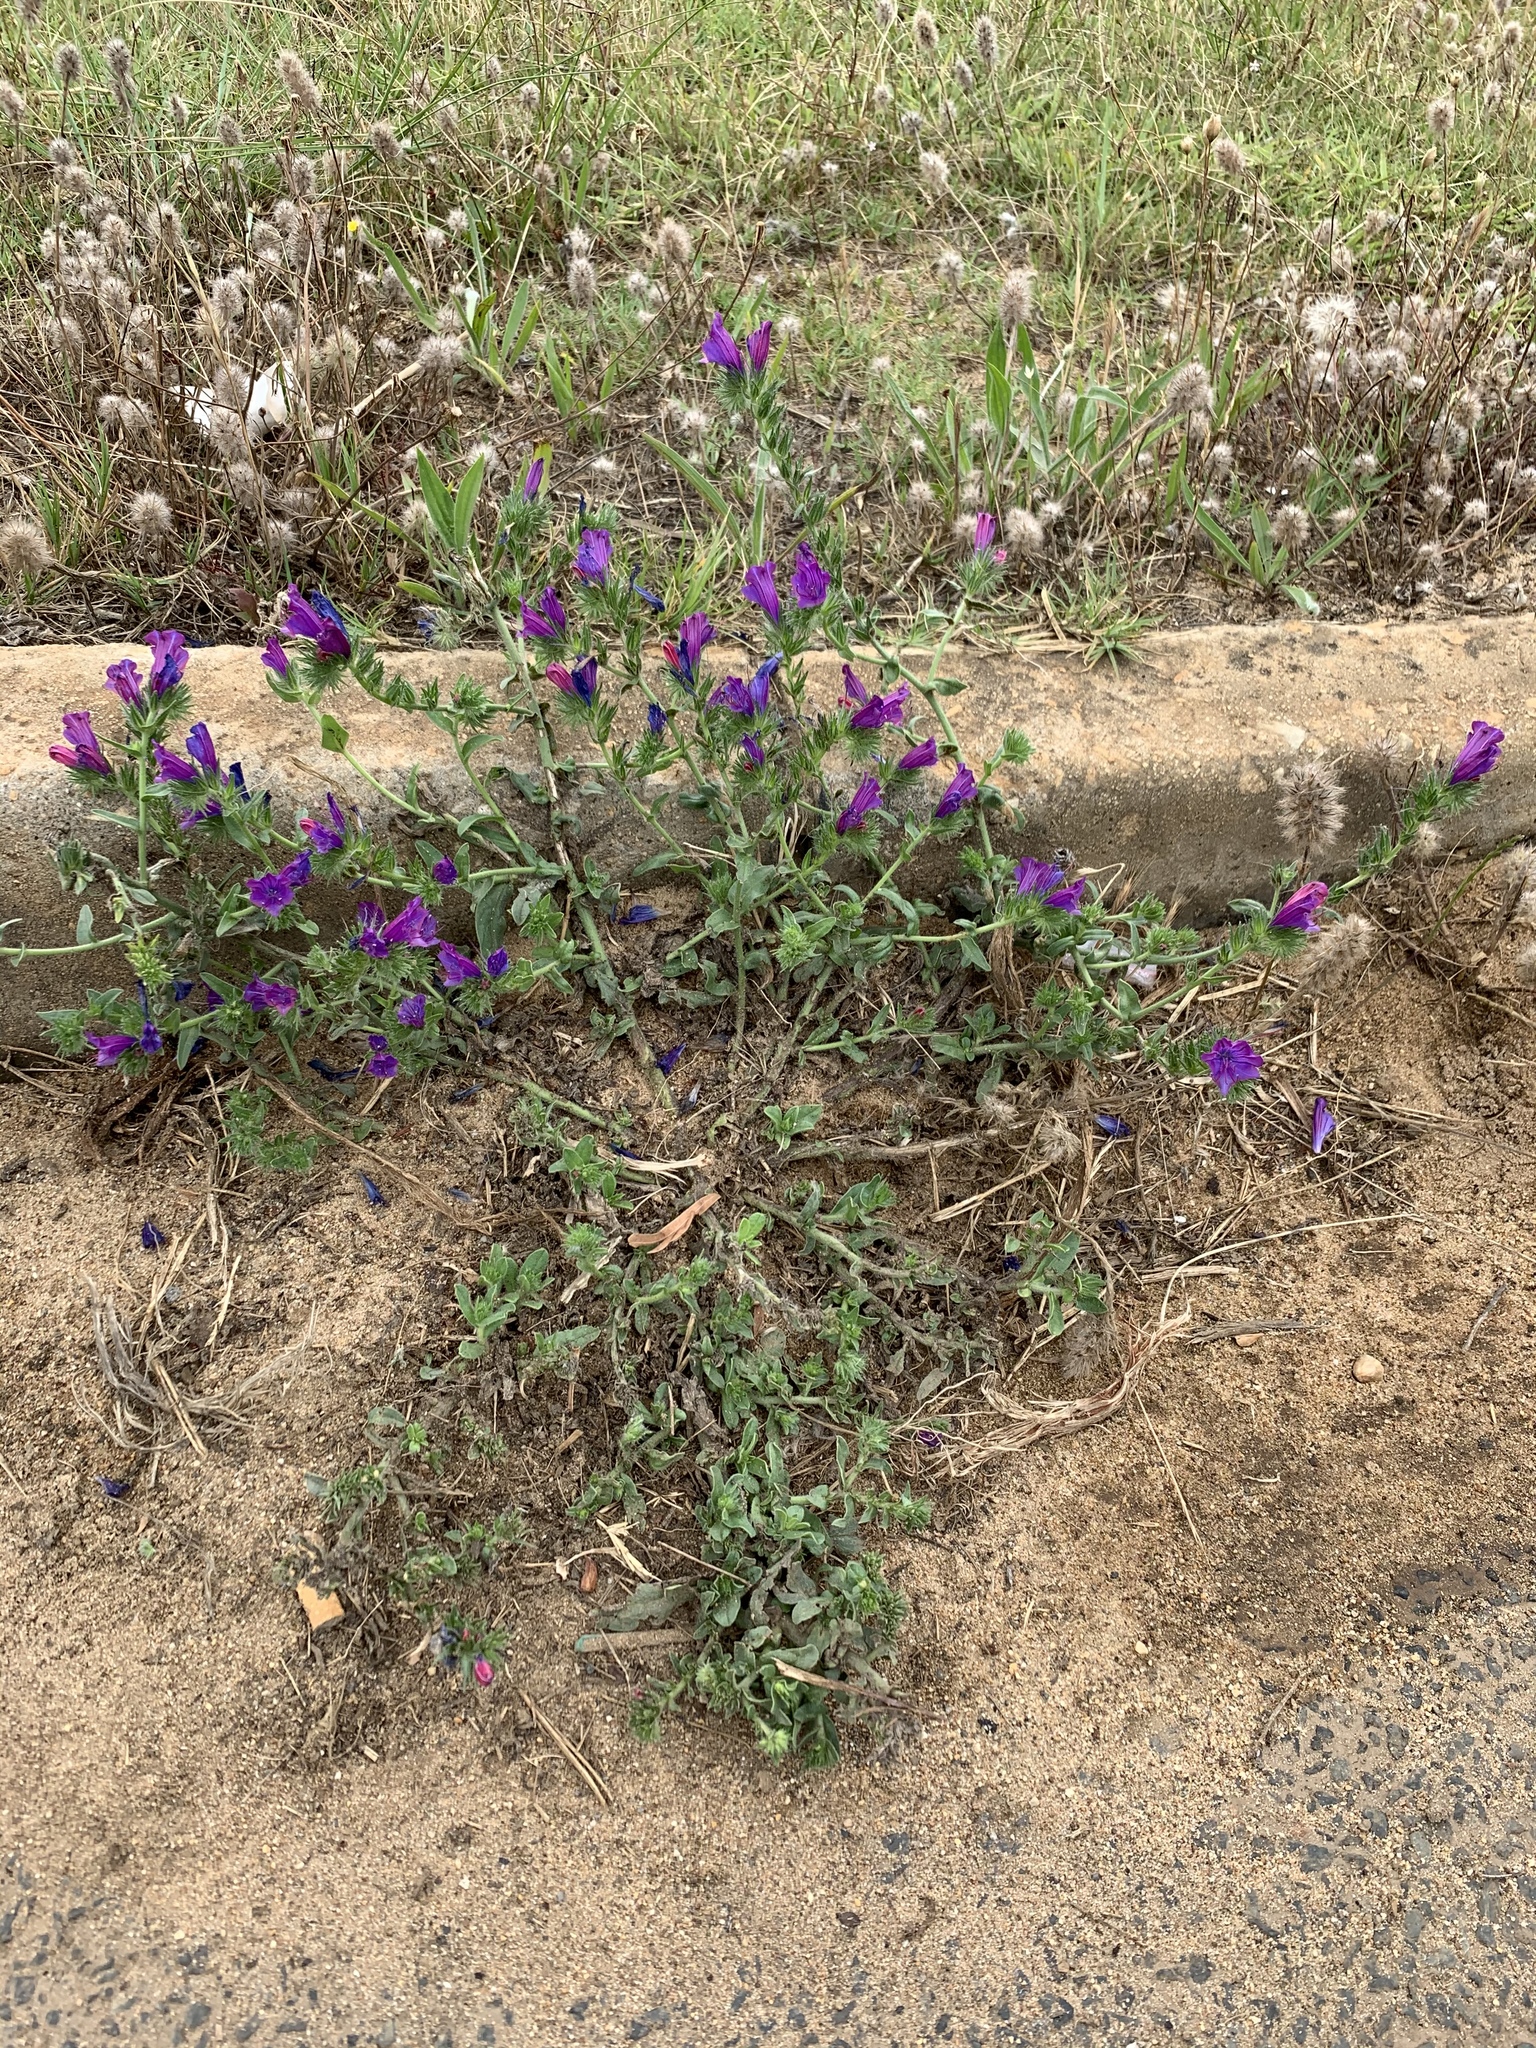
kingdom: Plantae
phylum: Tracheophyta
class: Magnoliopsida
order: Boraginales
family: Boraginaceae
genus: Echium
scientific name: Echium plantagineum
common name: Purple viper's-bugloss
